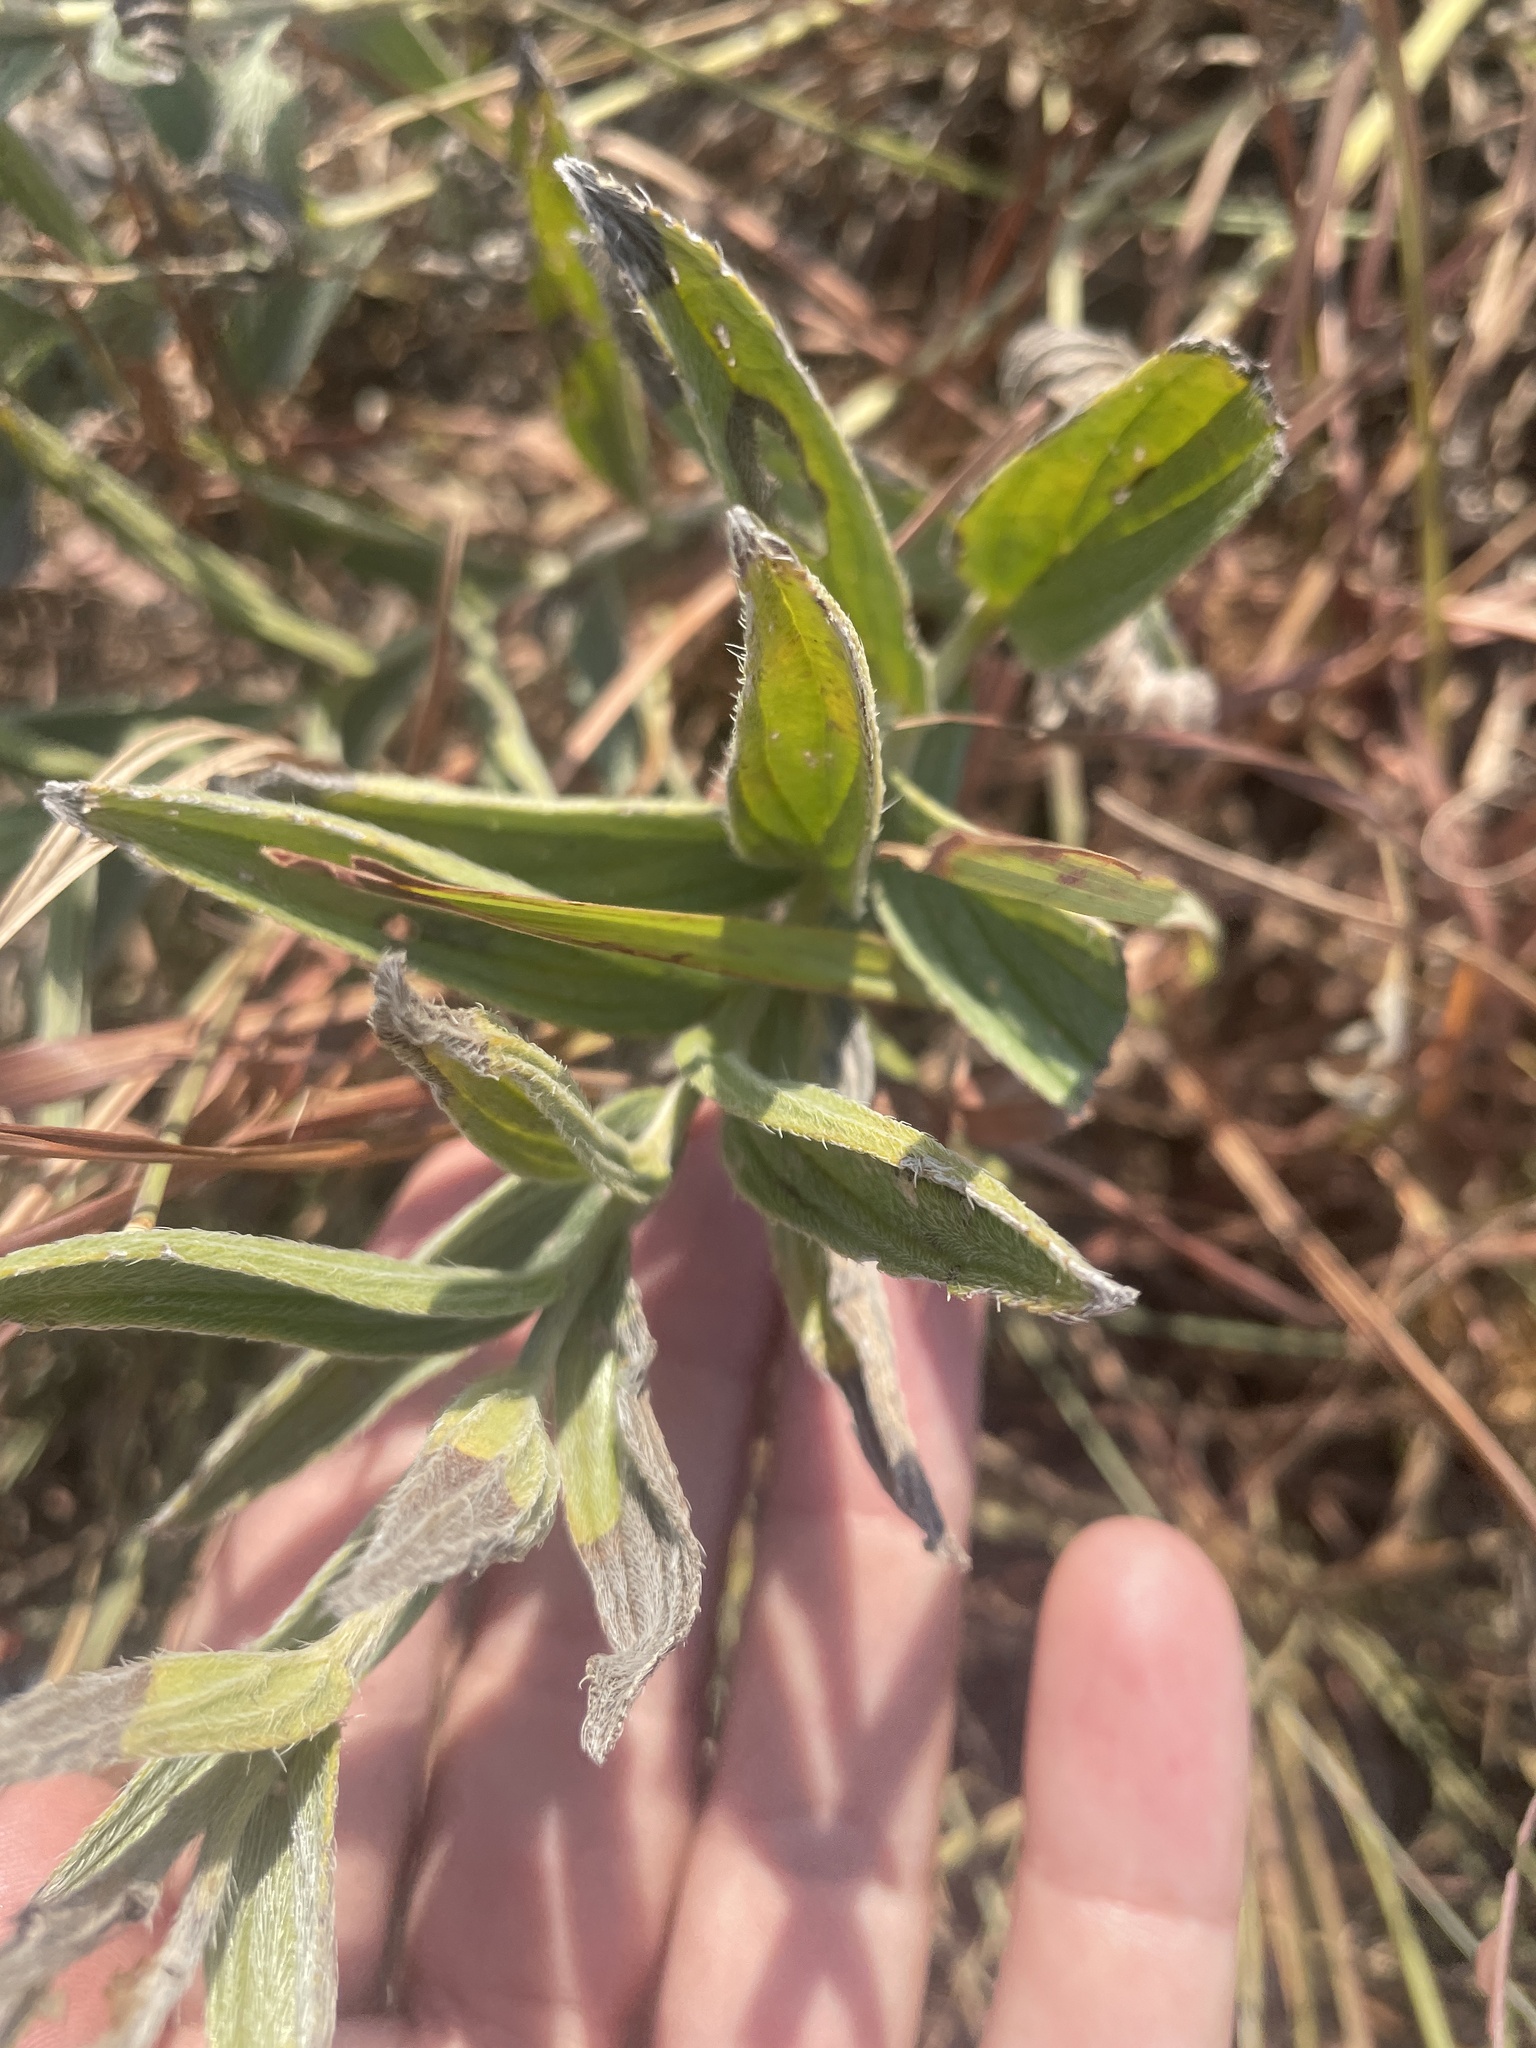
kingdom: Plantae
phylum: Tracheophyta
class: Magnoliopsida
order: Boraginales
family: Boraginaceae
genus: Lithospermum
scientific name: Lithospermum occidentale
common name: Western false gromwell
